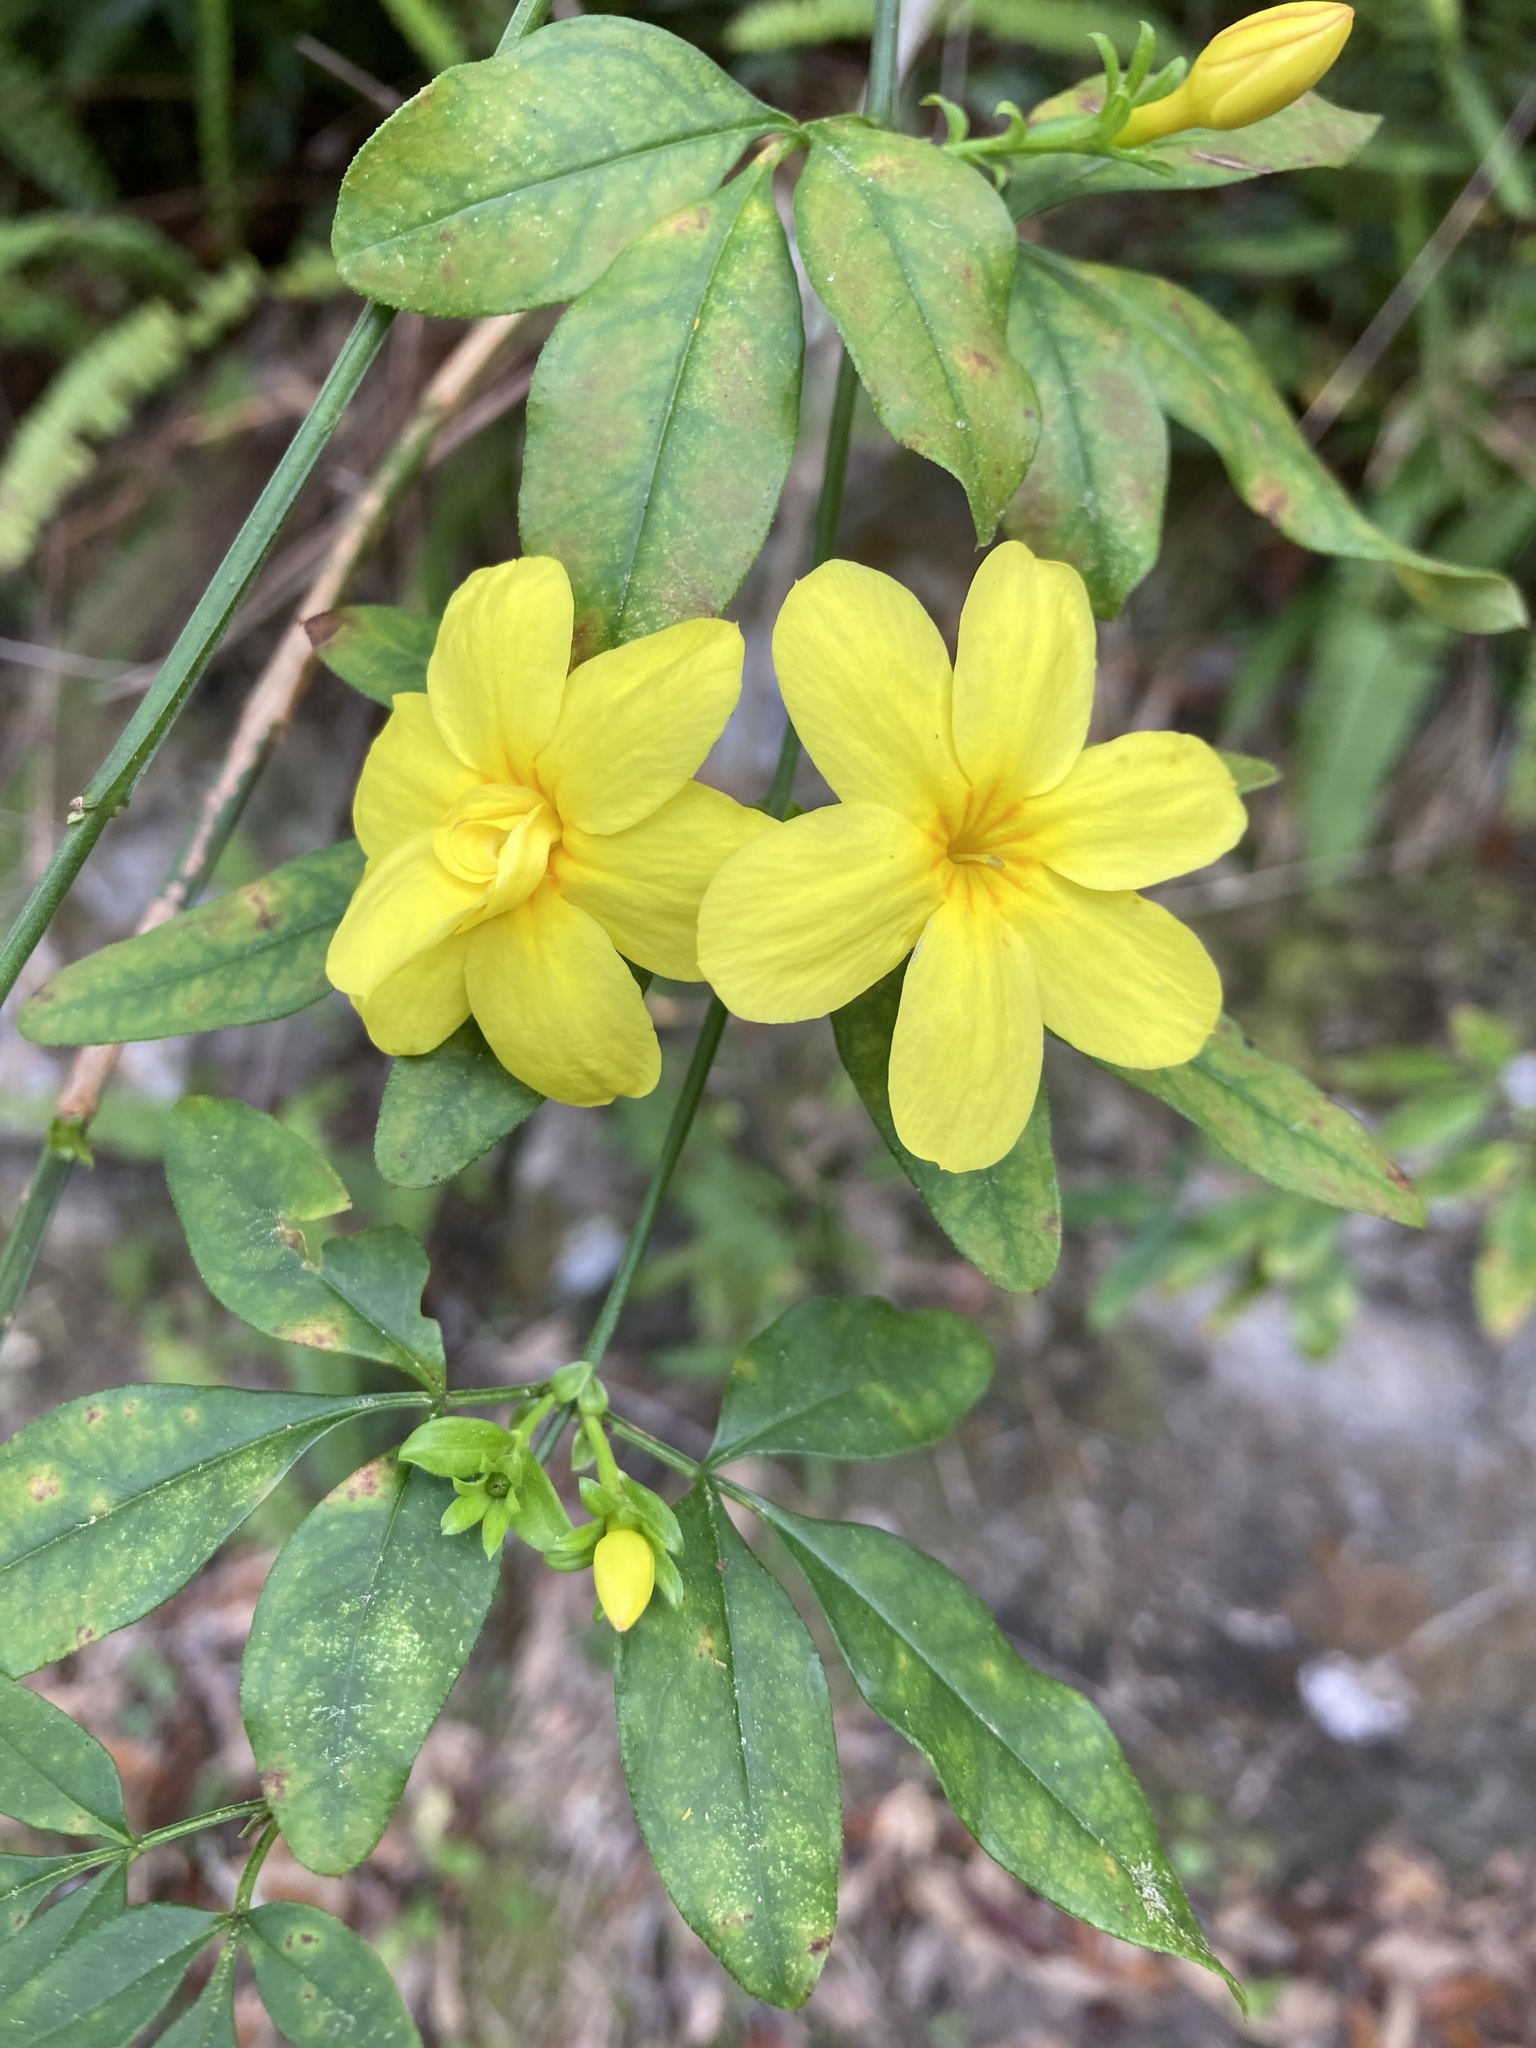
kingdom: Plantae
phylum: Tracheophyta
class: Magnoliopsida
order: Lamiales
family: Oleaceae
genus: Jasminum
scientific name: Jasminum mesnyi
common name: Japanese jasmine
